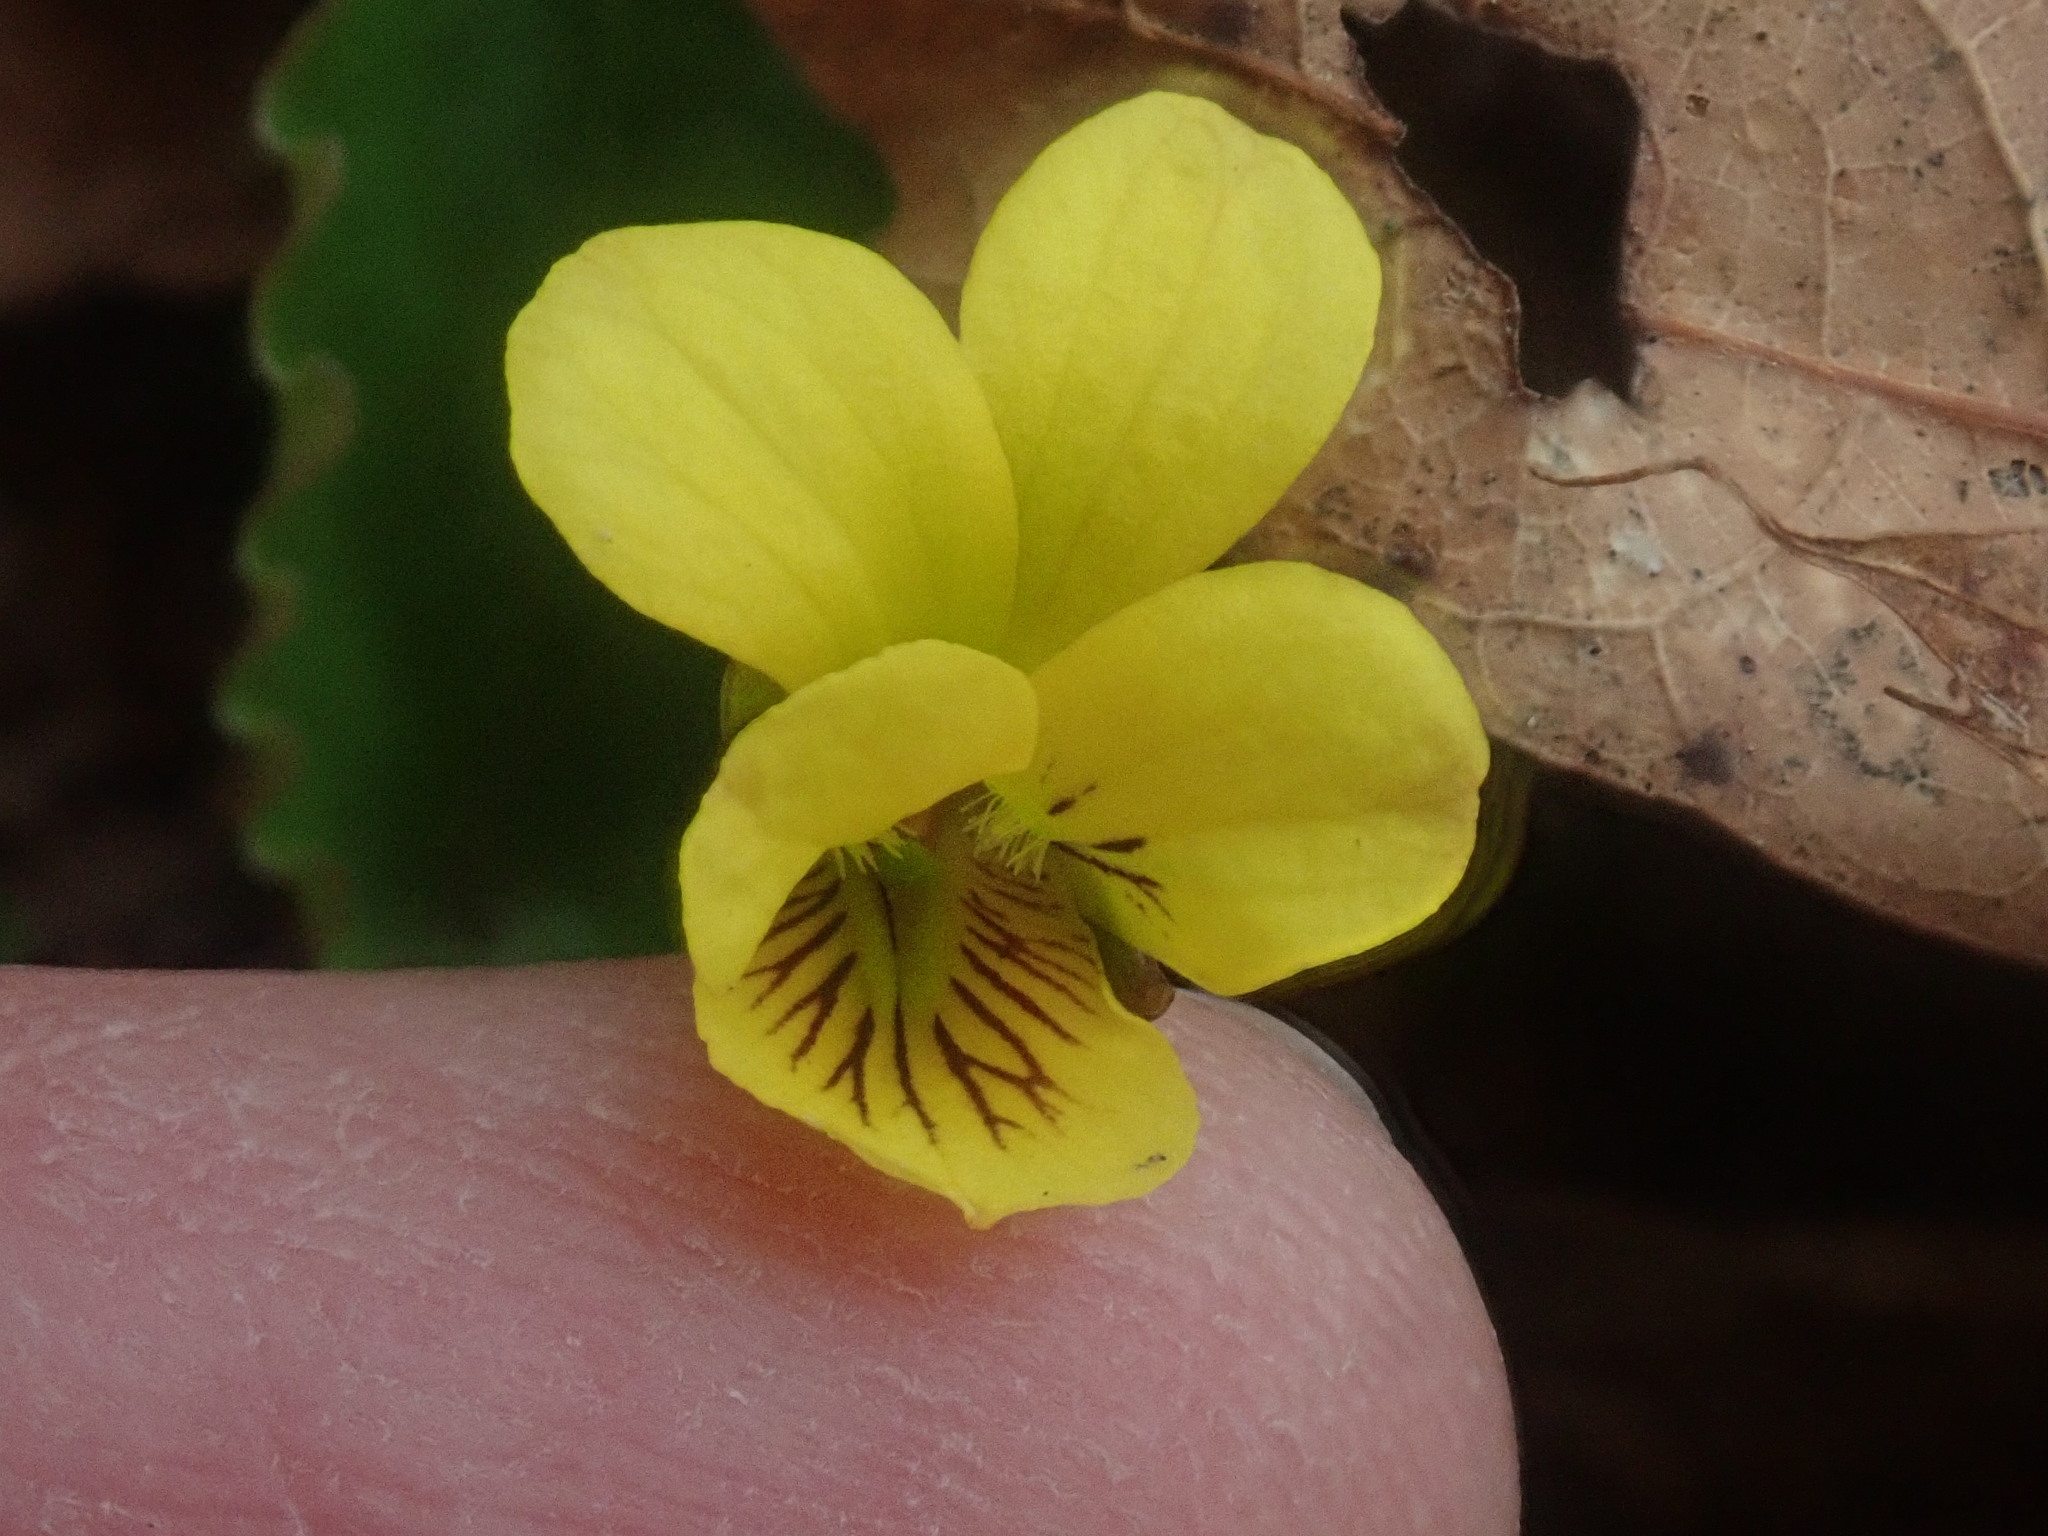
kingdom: Plantae
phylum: Tracheophyta
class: Magnoliopsida
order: Malpighiales
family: Violaceae
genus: Viola
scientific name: Viola rotundifolia
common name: Early yellow violet
